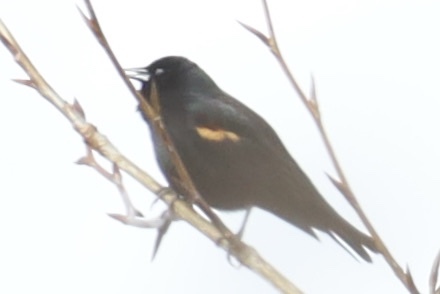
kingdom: Animalia
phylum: Chordata
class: Aves
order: Passeriformes
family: Icteridae
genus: Agelaius
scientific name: Agelaius phoeniceus
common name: Red-winged blackbird
